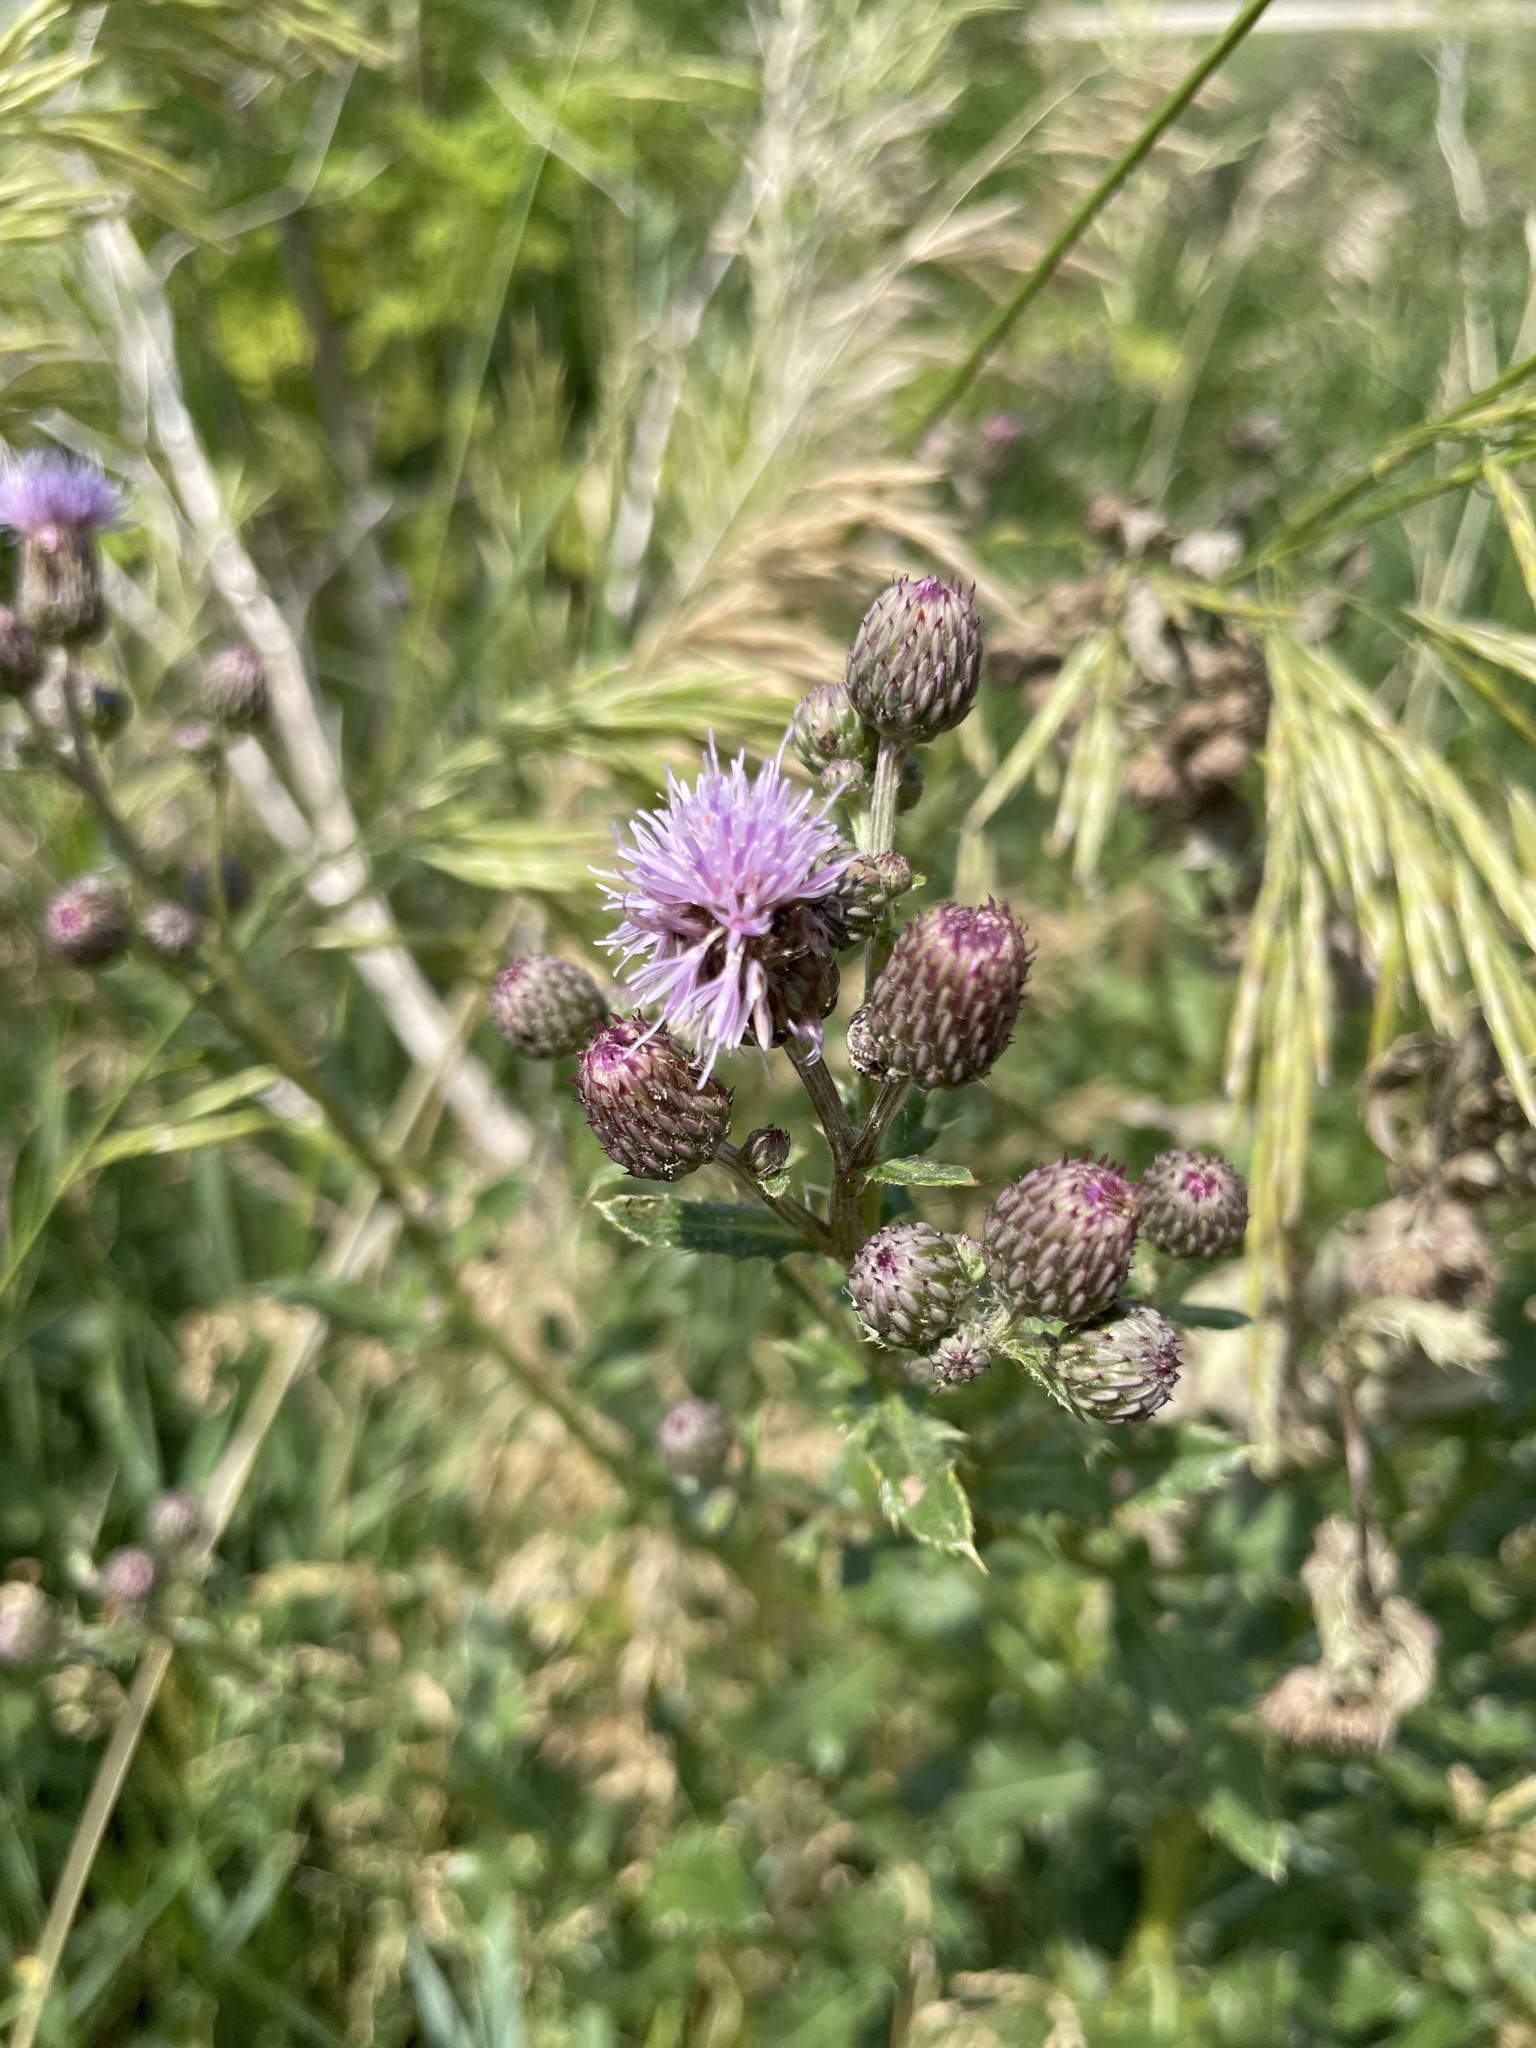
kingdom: Plantae
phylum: Tracheophyta
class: Magnoliopsida
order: Asterales
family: Asteraceae
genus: Cirsium
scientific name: Cirsium arvense
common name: Creeping thistle
